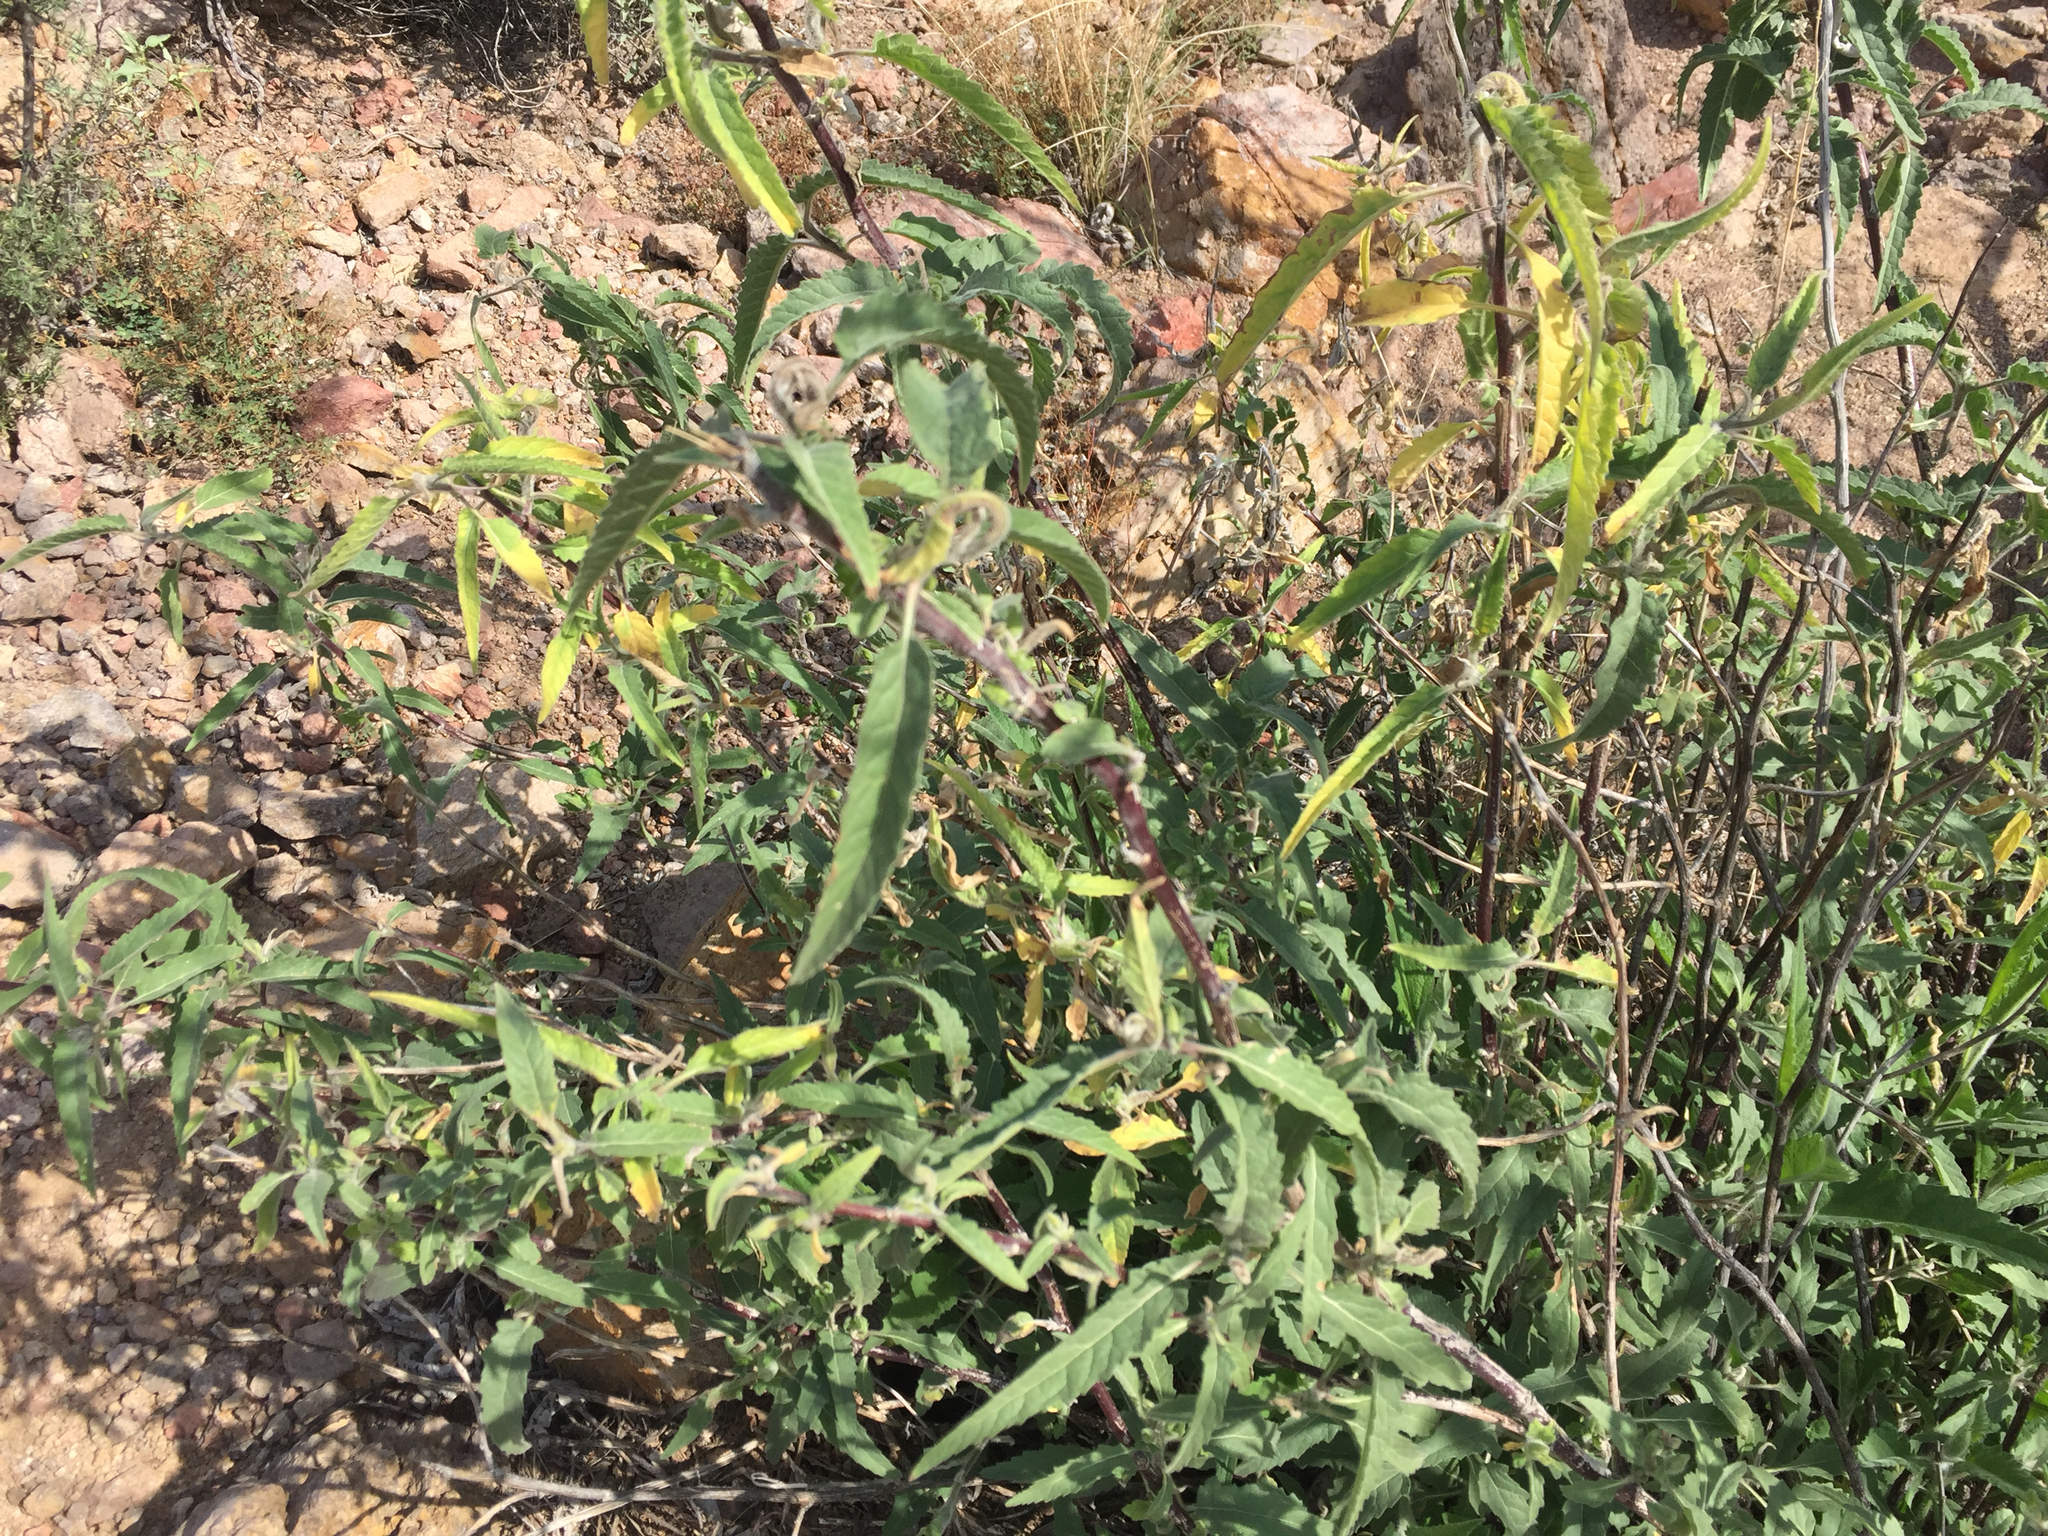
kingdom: Plantae
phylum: Tracheophyta
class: Magnoliopsida
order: Asterales
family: Asteraceae
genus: Ambrosia
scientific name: Ambrosia ambrosioides
